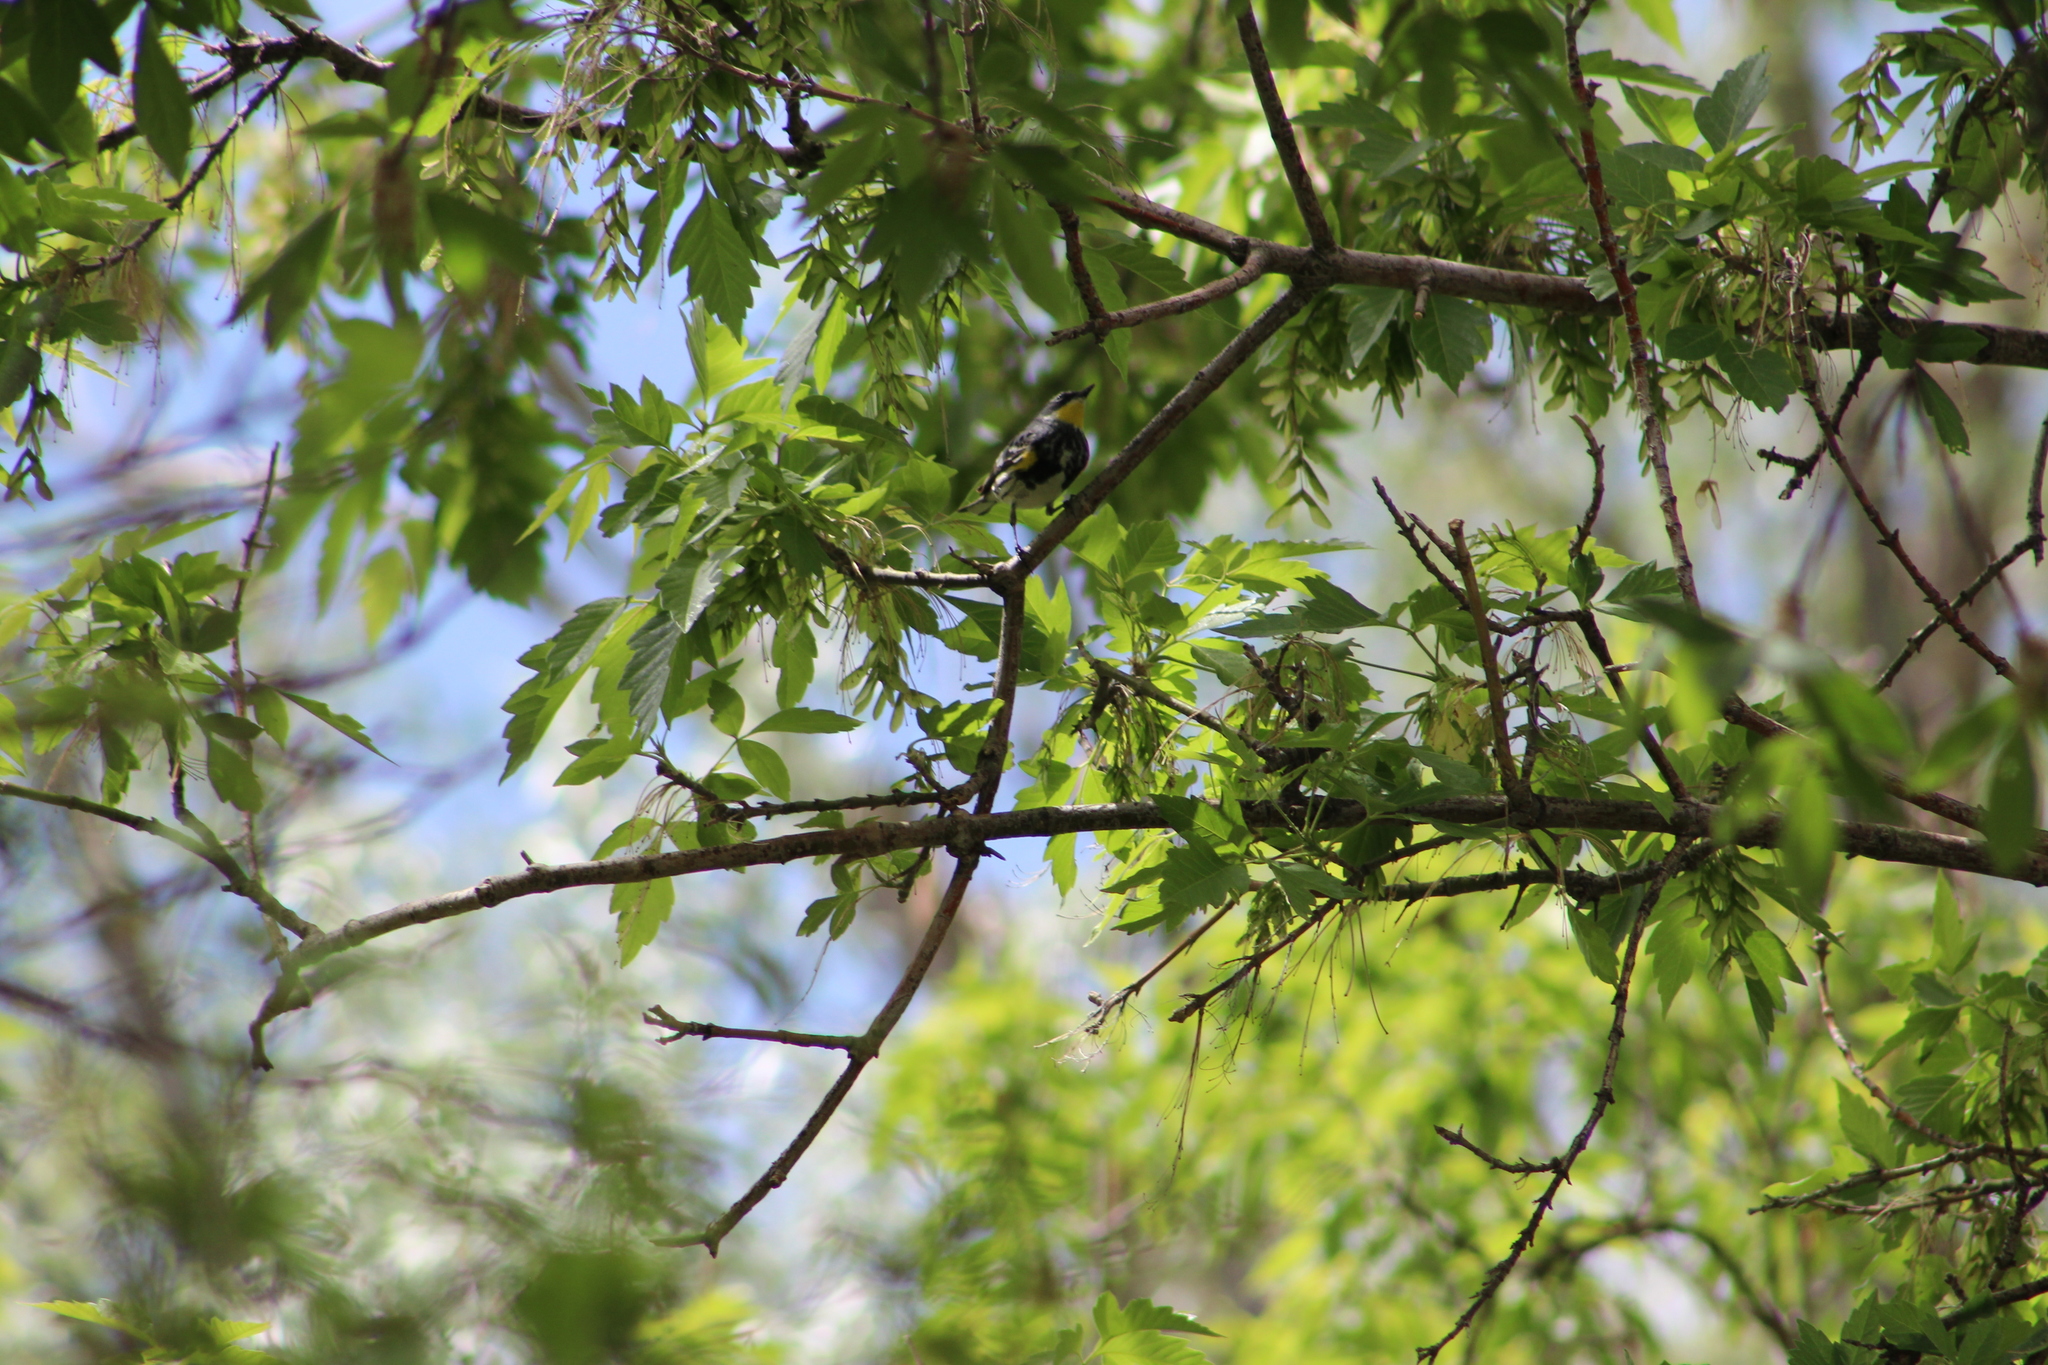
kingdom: Animalia
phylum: Chordata
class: Aves
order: Passeriformes
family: Parulidae
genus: Setophaga
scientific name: Setophaga coronata
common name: Myrtle warbler
